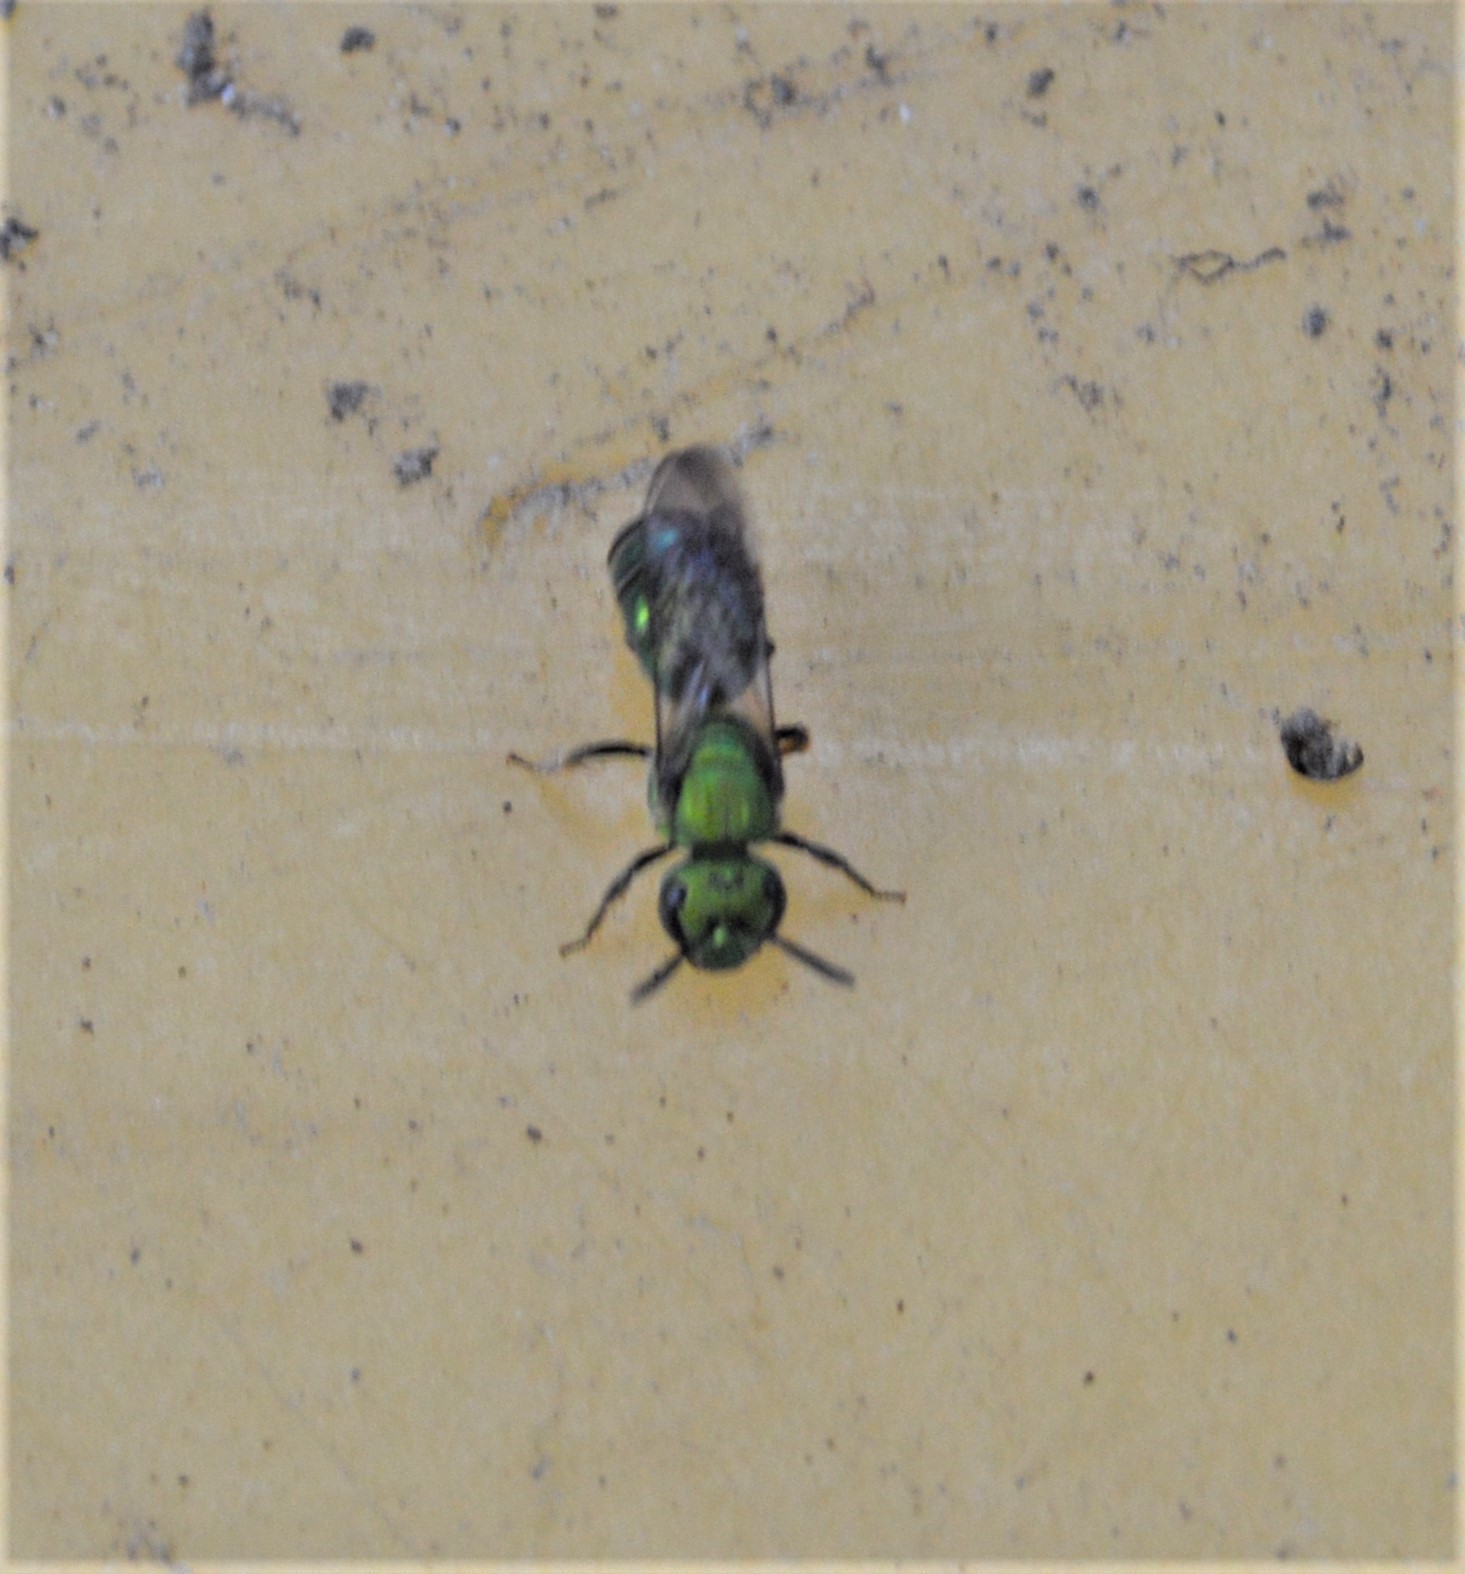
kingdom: Animalia
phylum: Arthropoda
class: Insecta
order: Hymenoptera
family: Halictidae
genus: Augochlora
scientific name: Augochlora pura
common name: Pure green sweat bee
